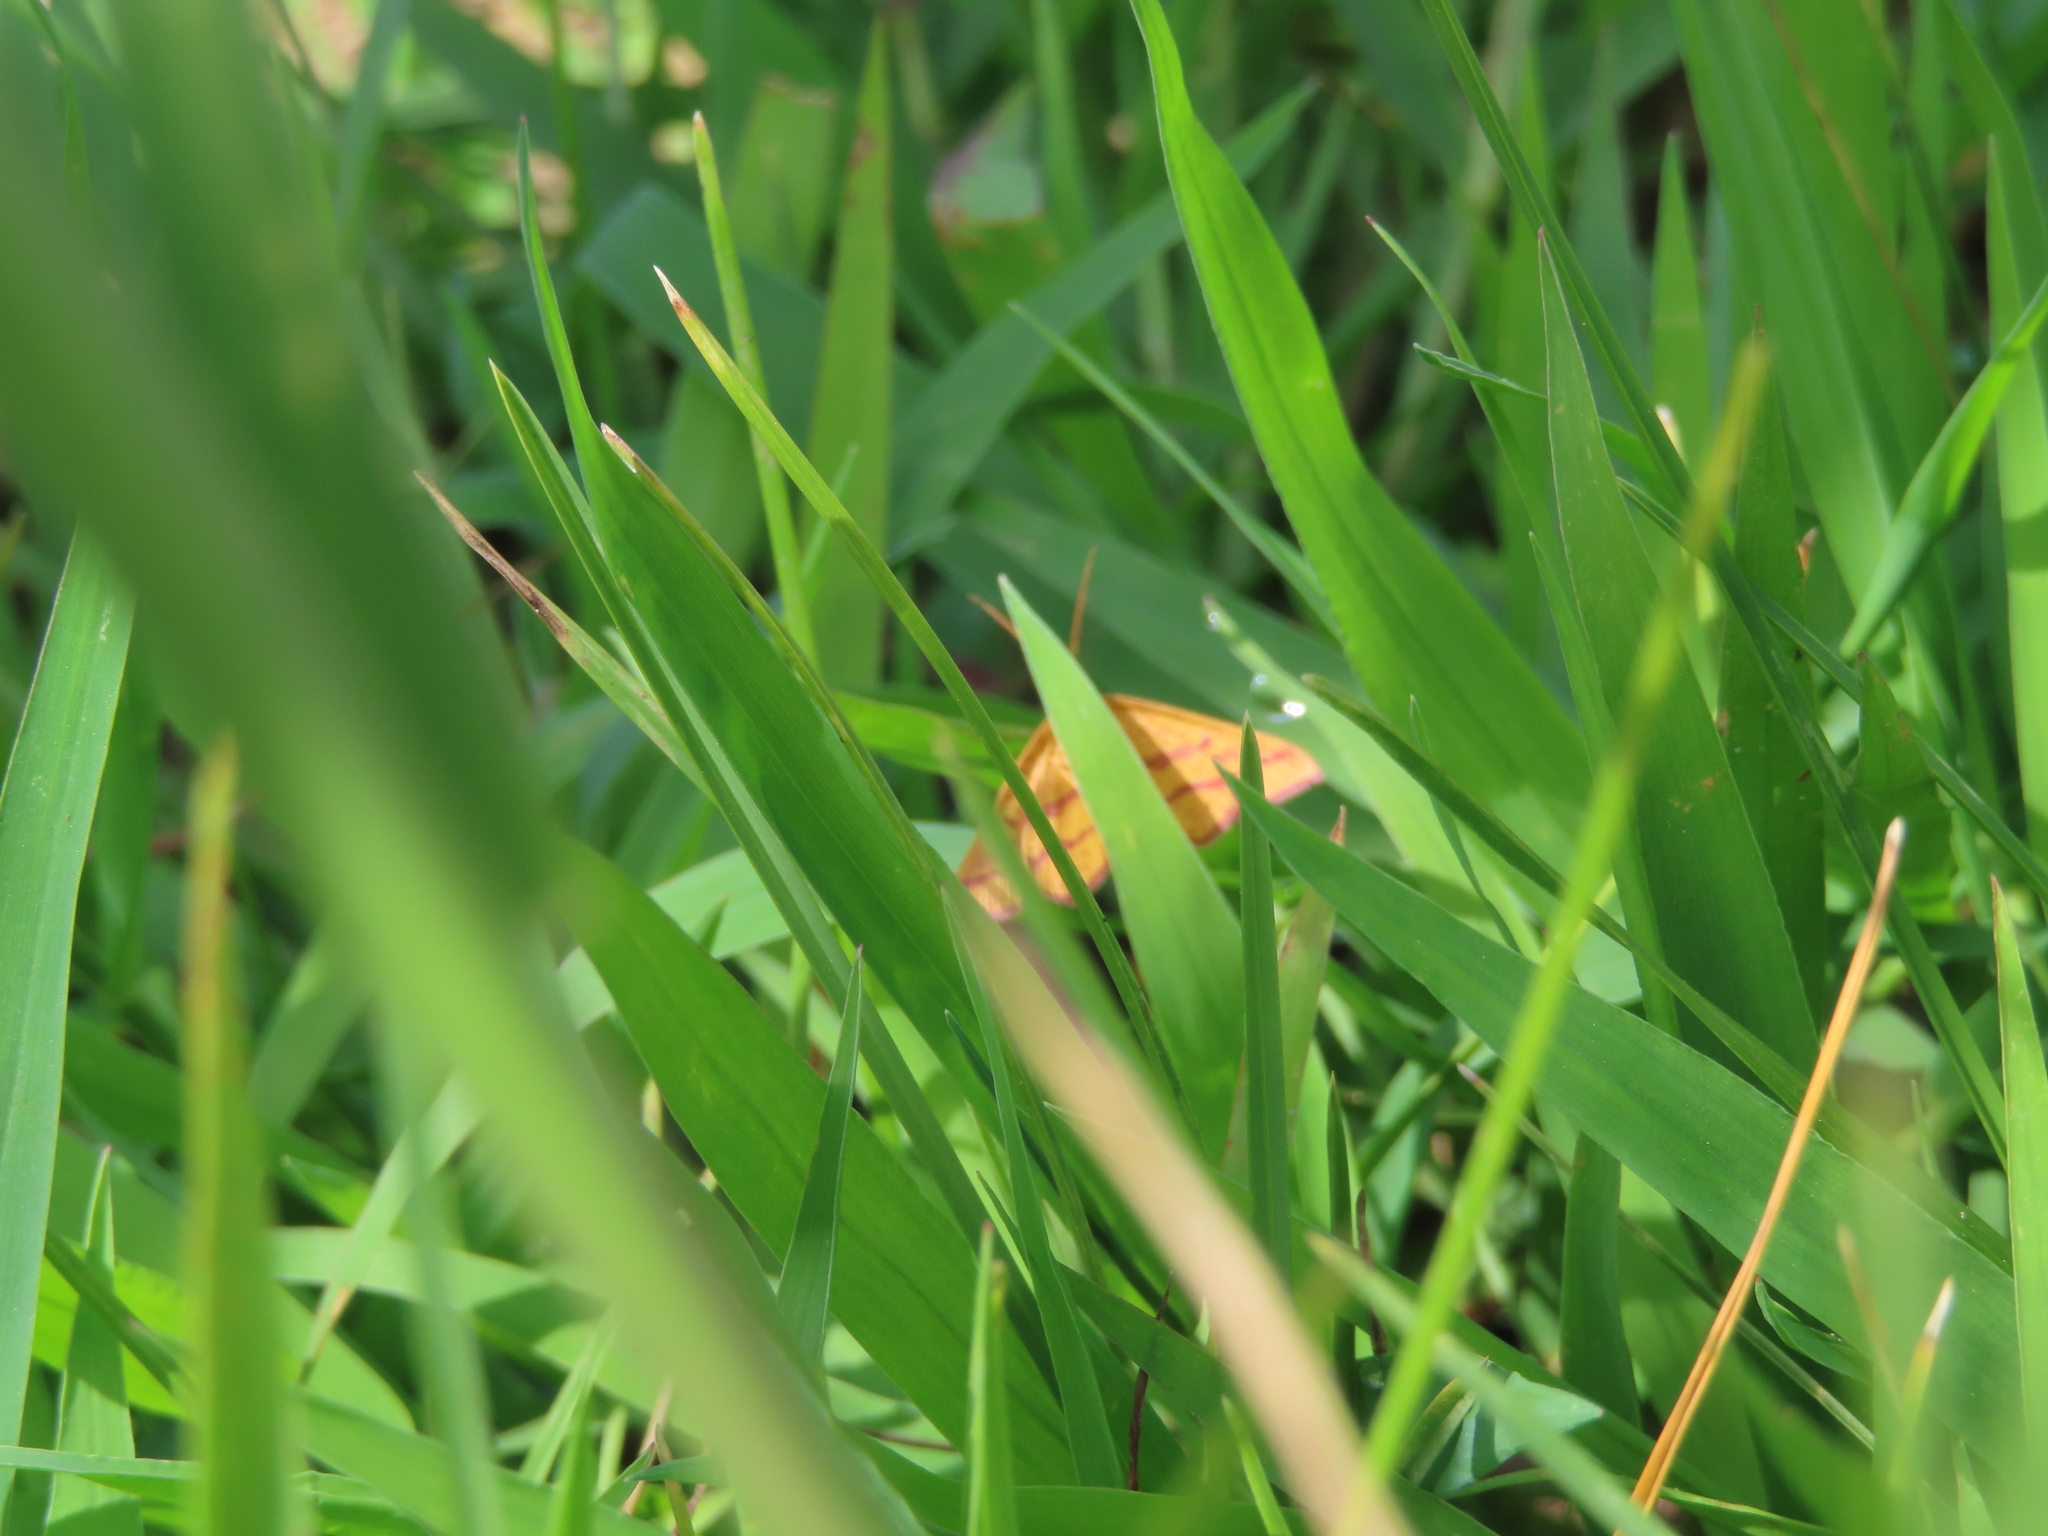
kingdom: Animalia
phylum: Arthropoda
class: Insecta
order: Lepidoptera
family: Geometridae
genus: Haematopis
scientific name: Haematopis grataria
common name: Chickweed geometer
